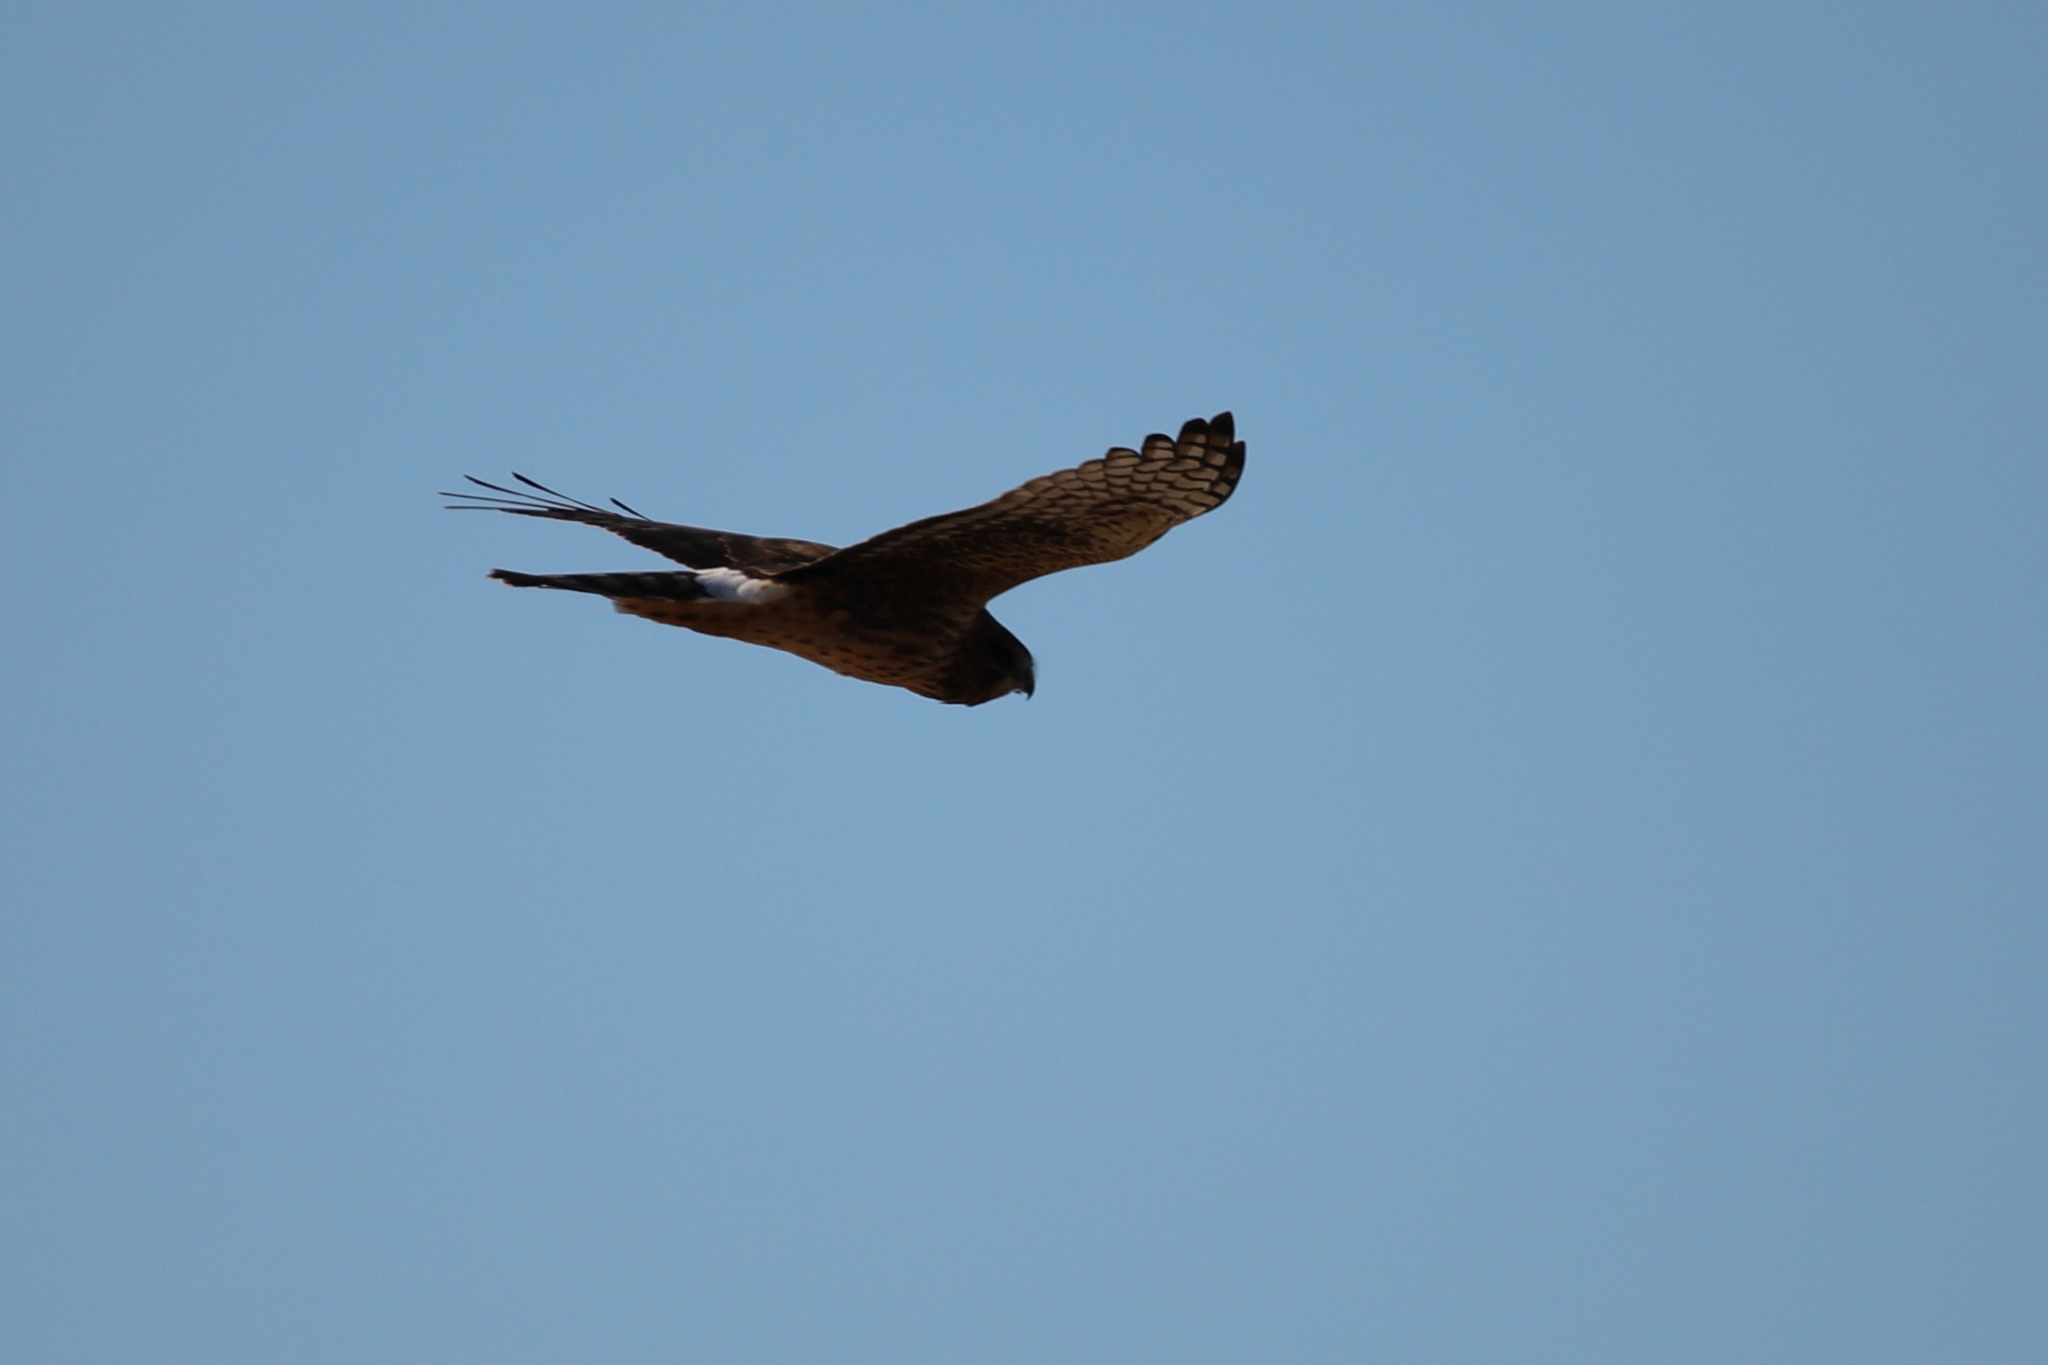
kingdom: Animalia
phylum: Chordata
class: Aves
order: Accipitriformes
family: Accipitridae
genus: Circus
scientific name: Circus cyaneus
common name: Hen harrier
